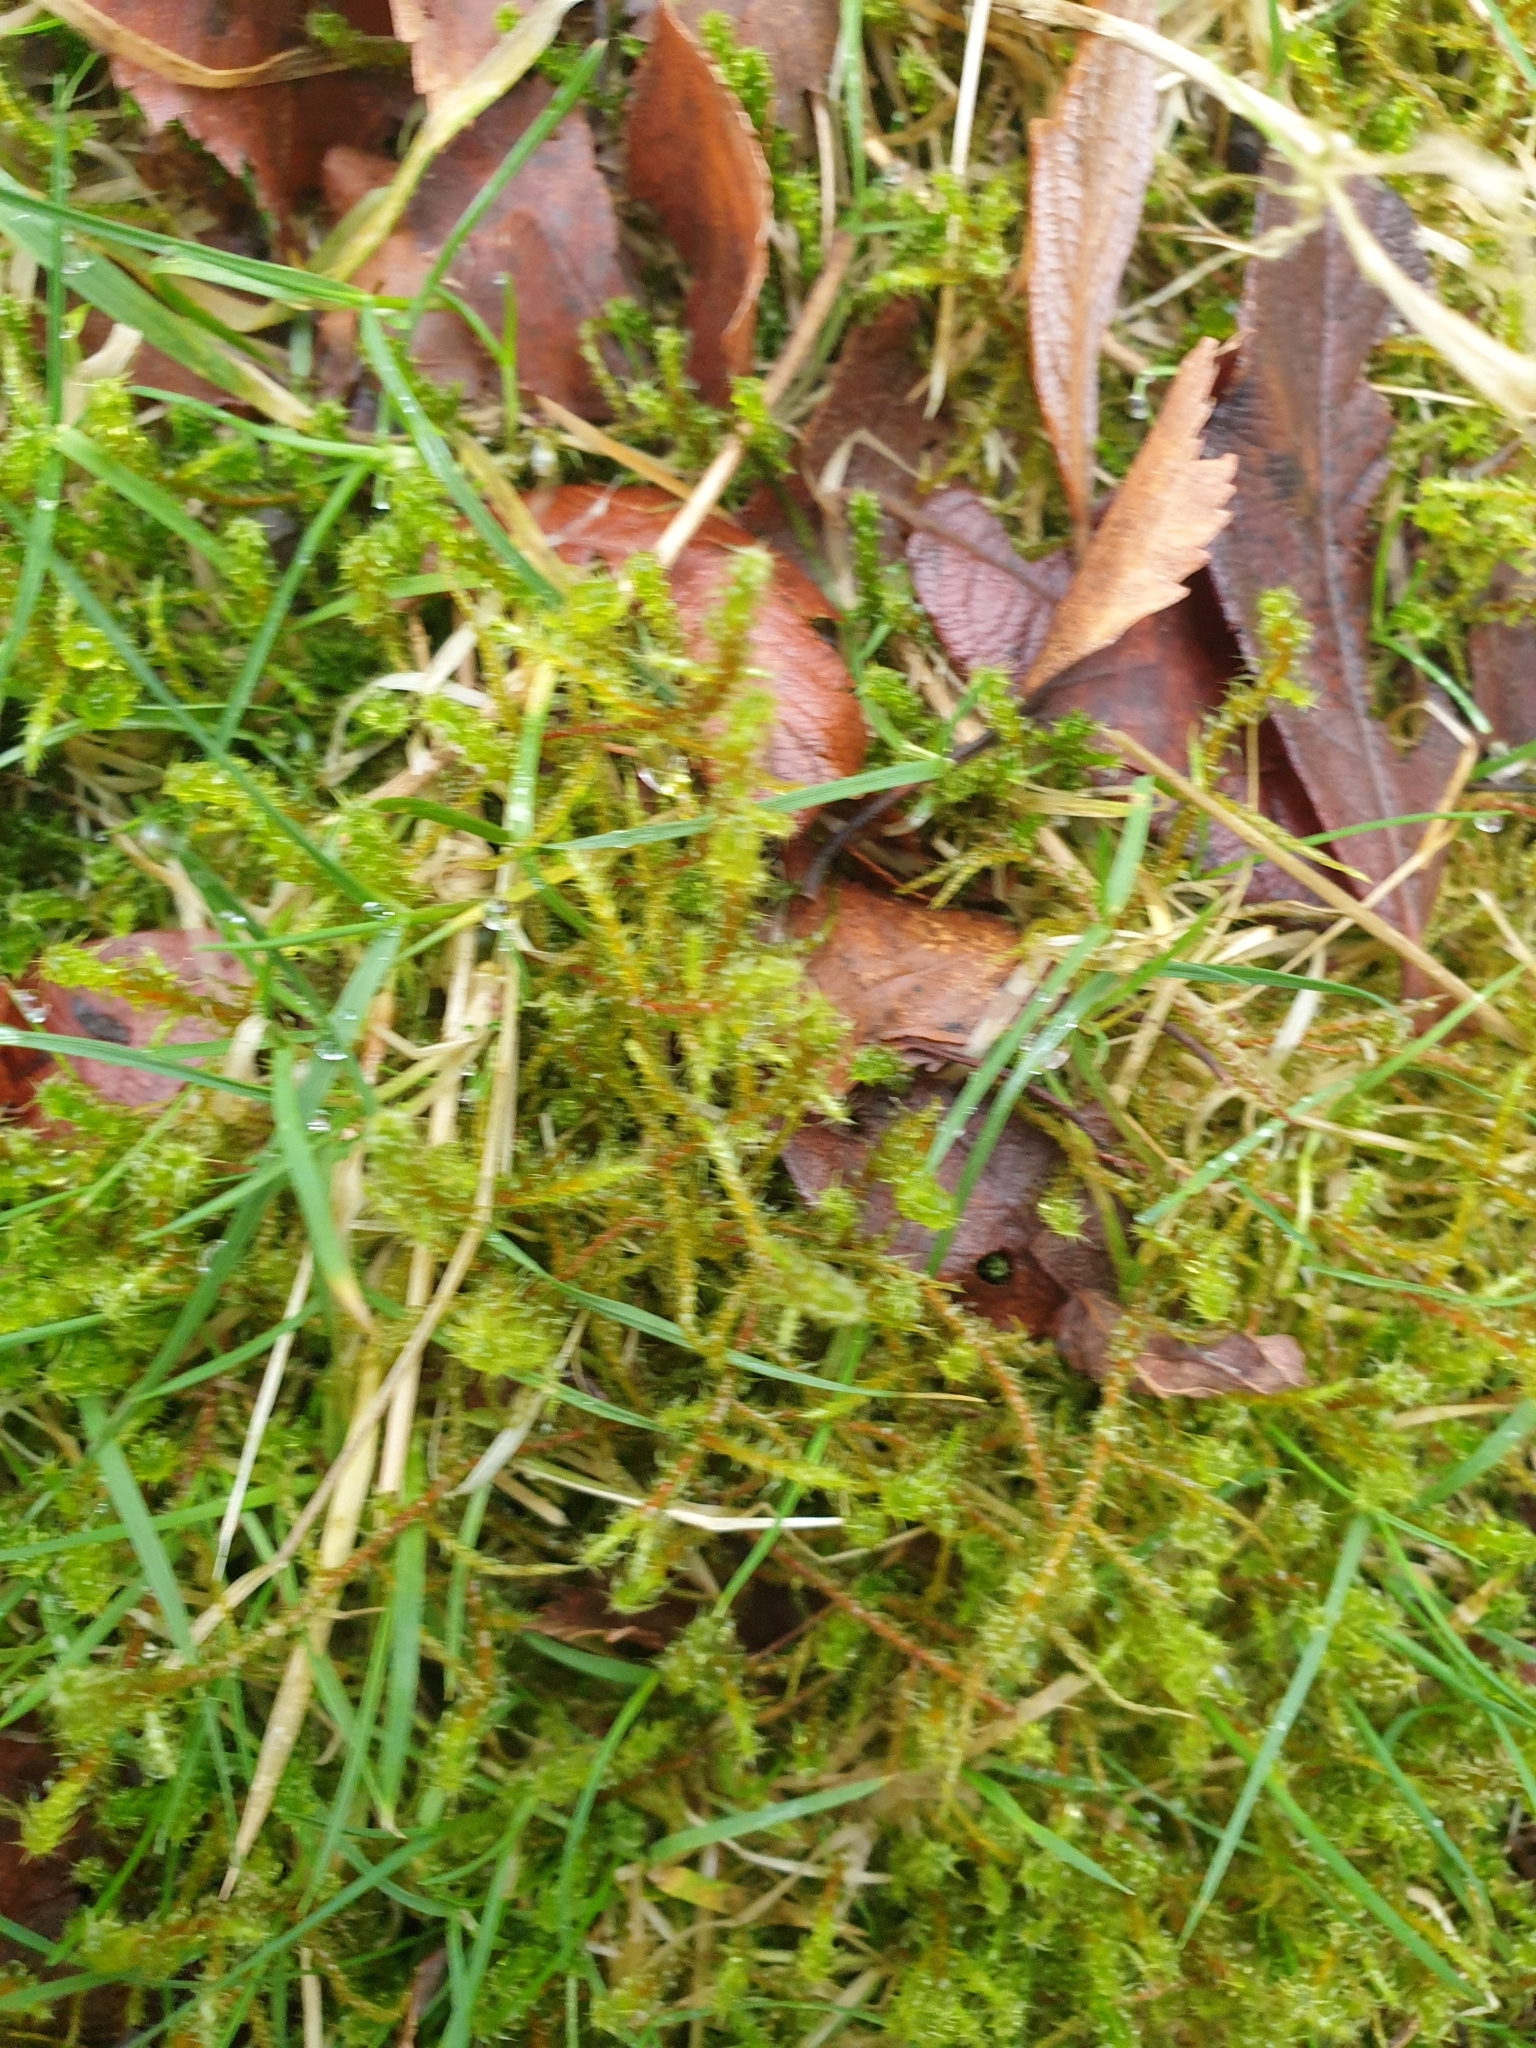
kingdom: Plantae
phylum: Bryophyta
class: Bryopsida
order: Hypnales
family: Hylocomiaceae
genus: Rhytidiadelphus
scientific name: Rhytidiadelphus squarrosus
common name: Springy turf-moss
